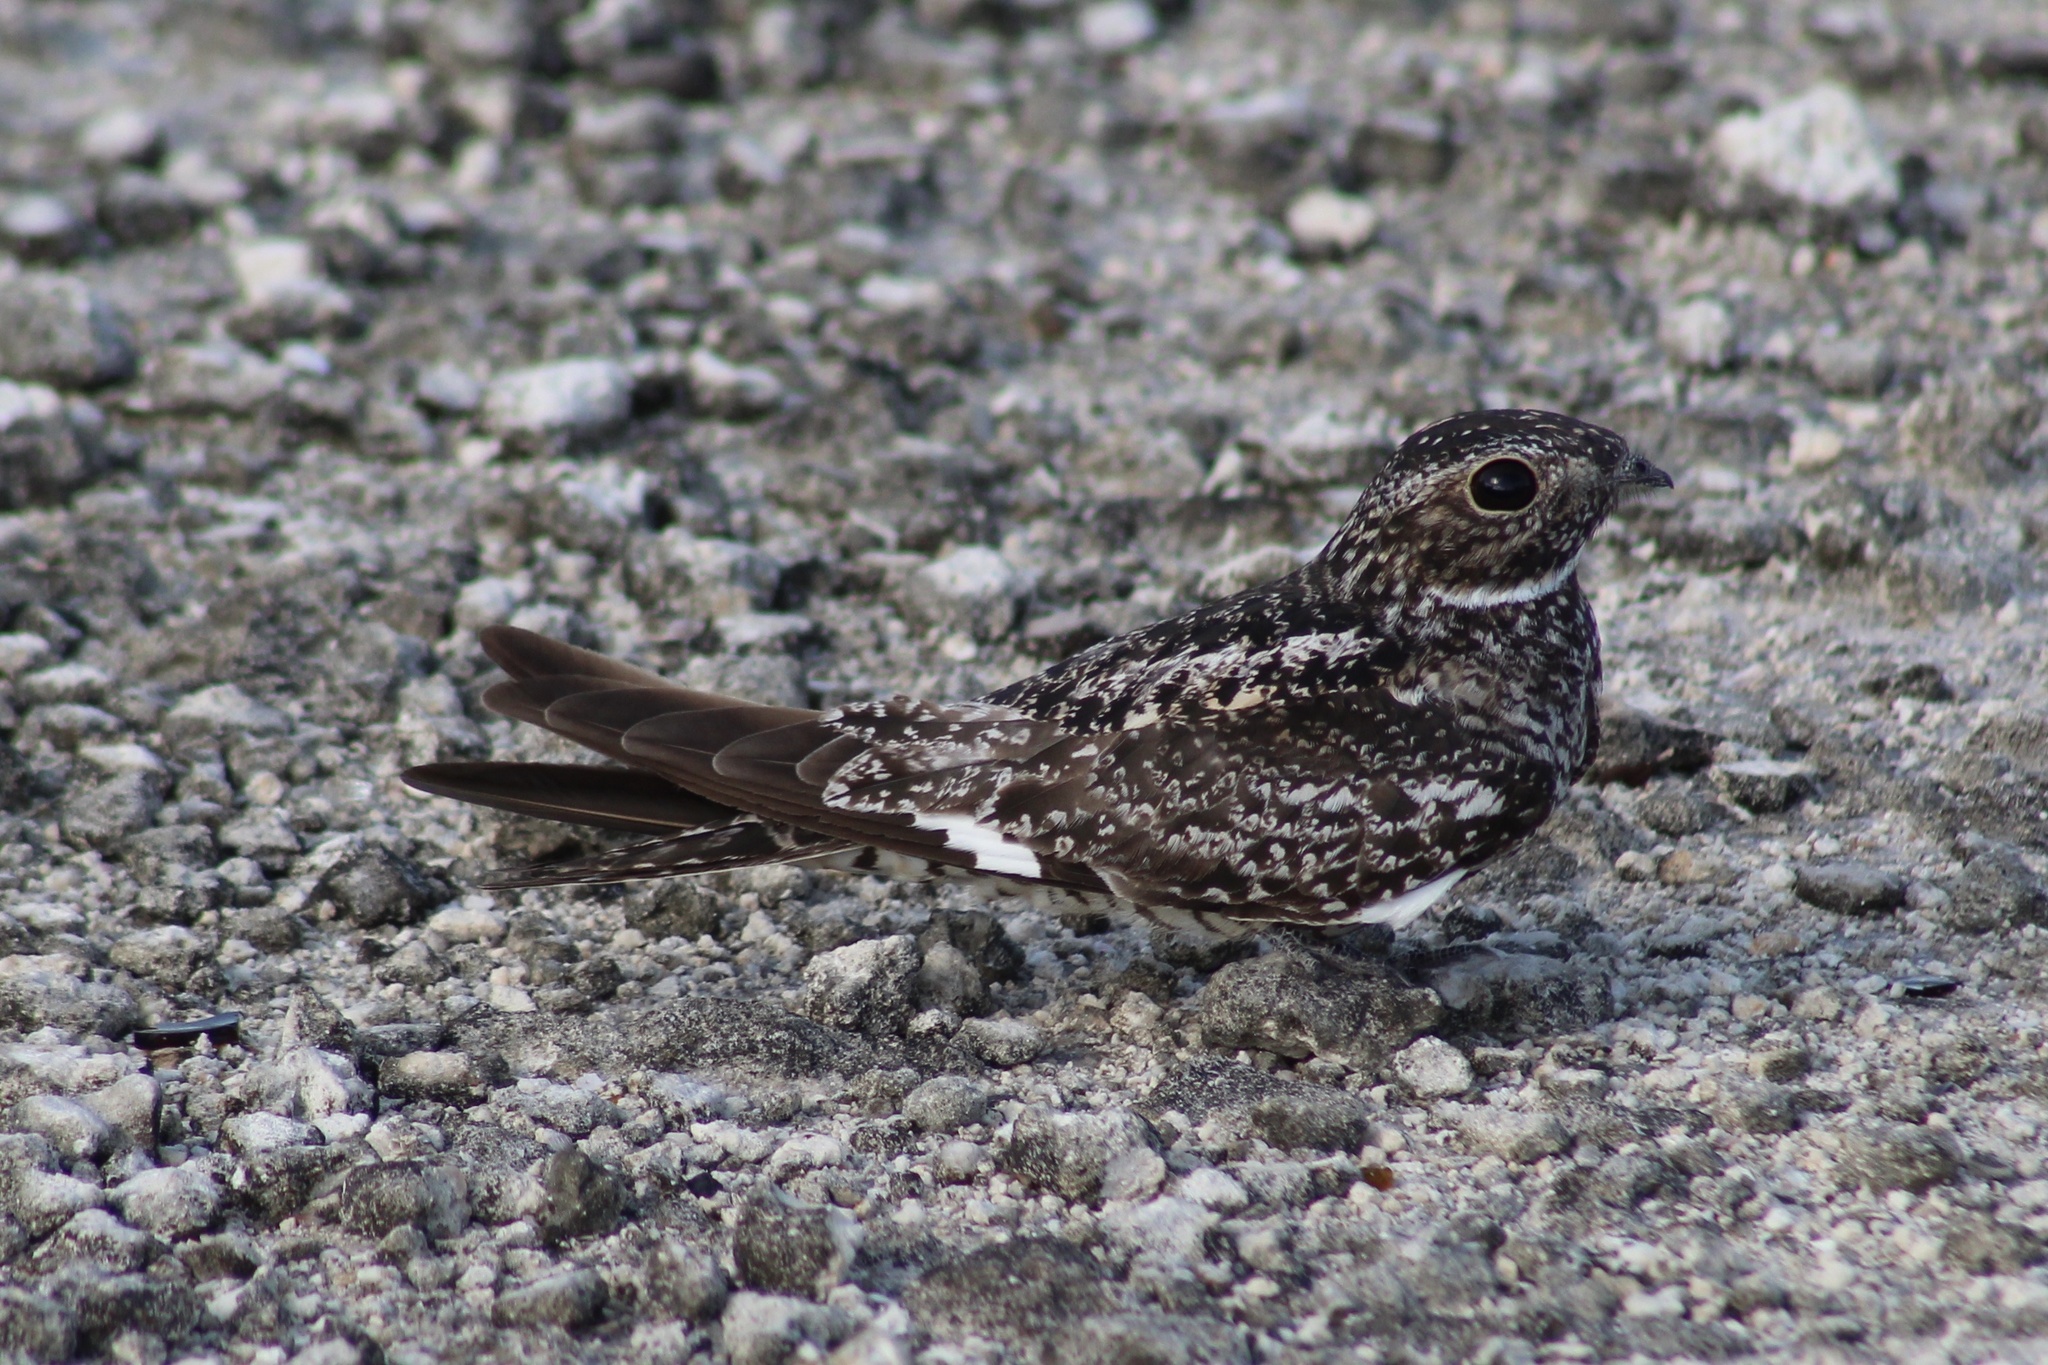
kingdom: Animalia
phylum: Chordata
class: Aves
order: Caprimulgiformes
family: Caprimulgidae
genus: Chordeiles
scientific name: Chordeiles gundlachii
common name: Antillean nighthawk
